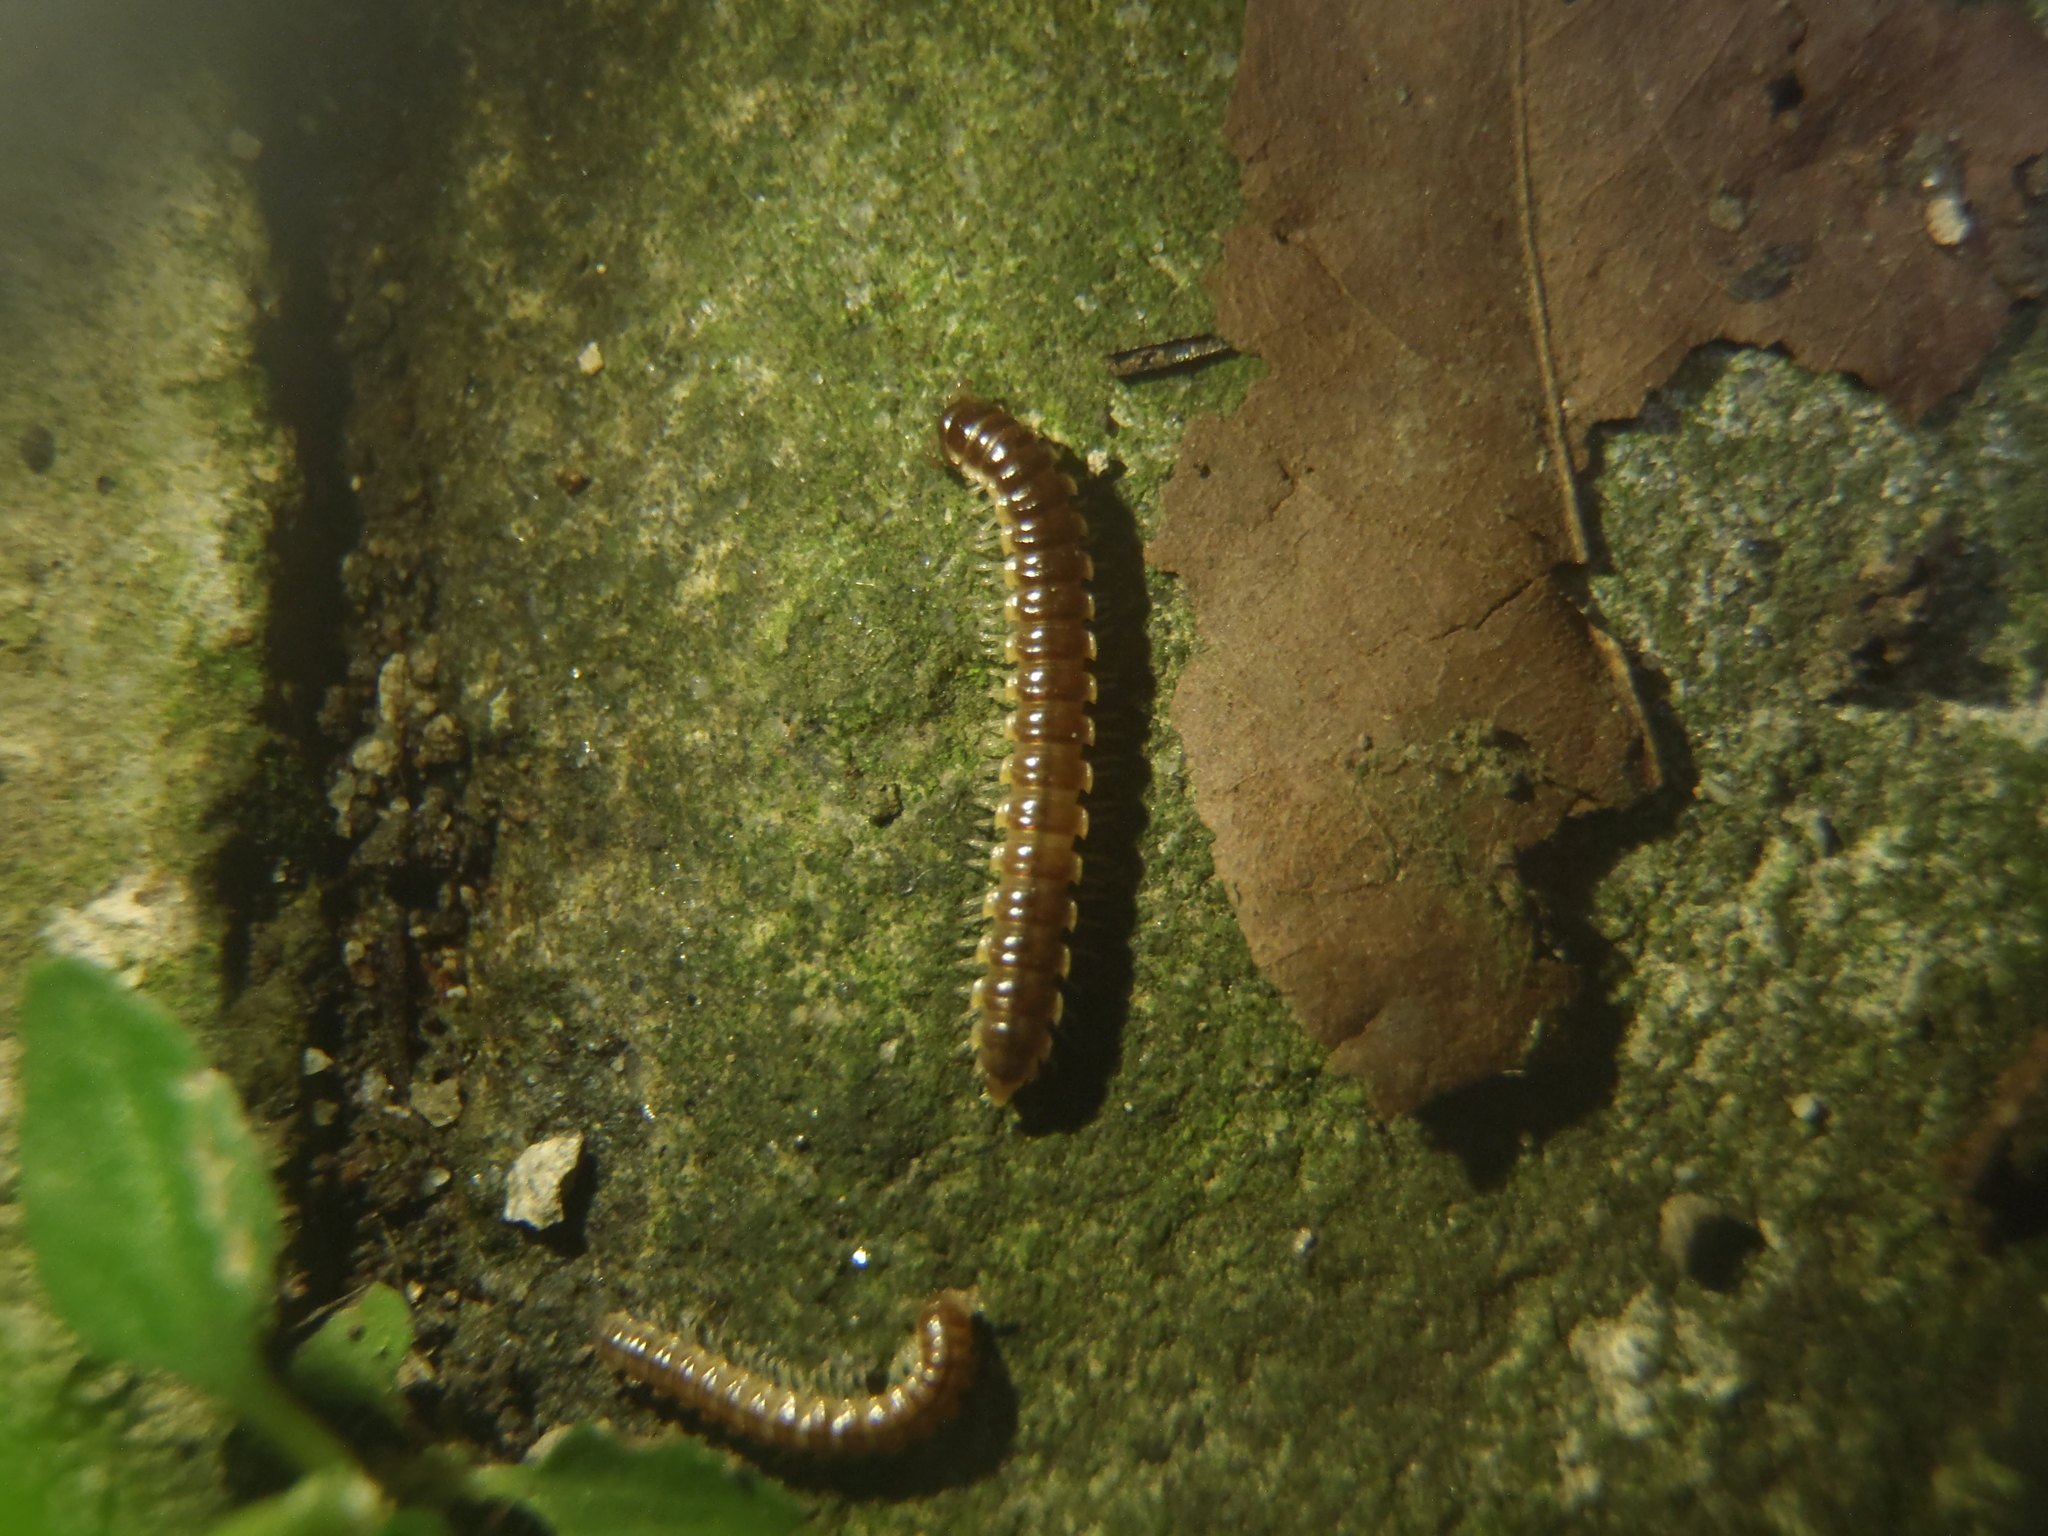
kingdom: Animalia
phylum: Arthropoda
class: Diplopoda
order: Polydesmida
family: Paradoxosomatidae
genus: Oxidus
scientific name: Oxidus gracilis
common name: Greenhouse millipede
